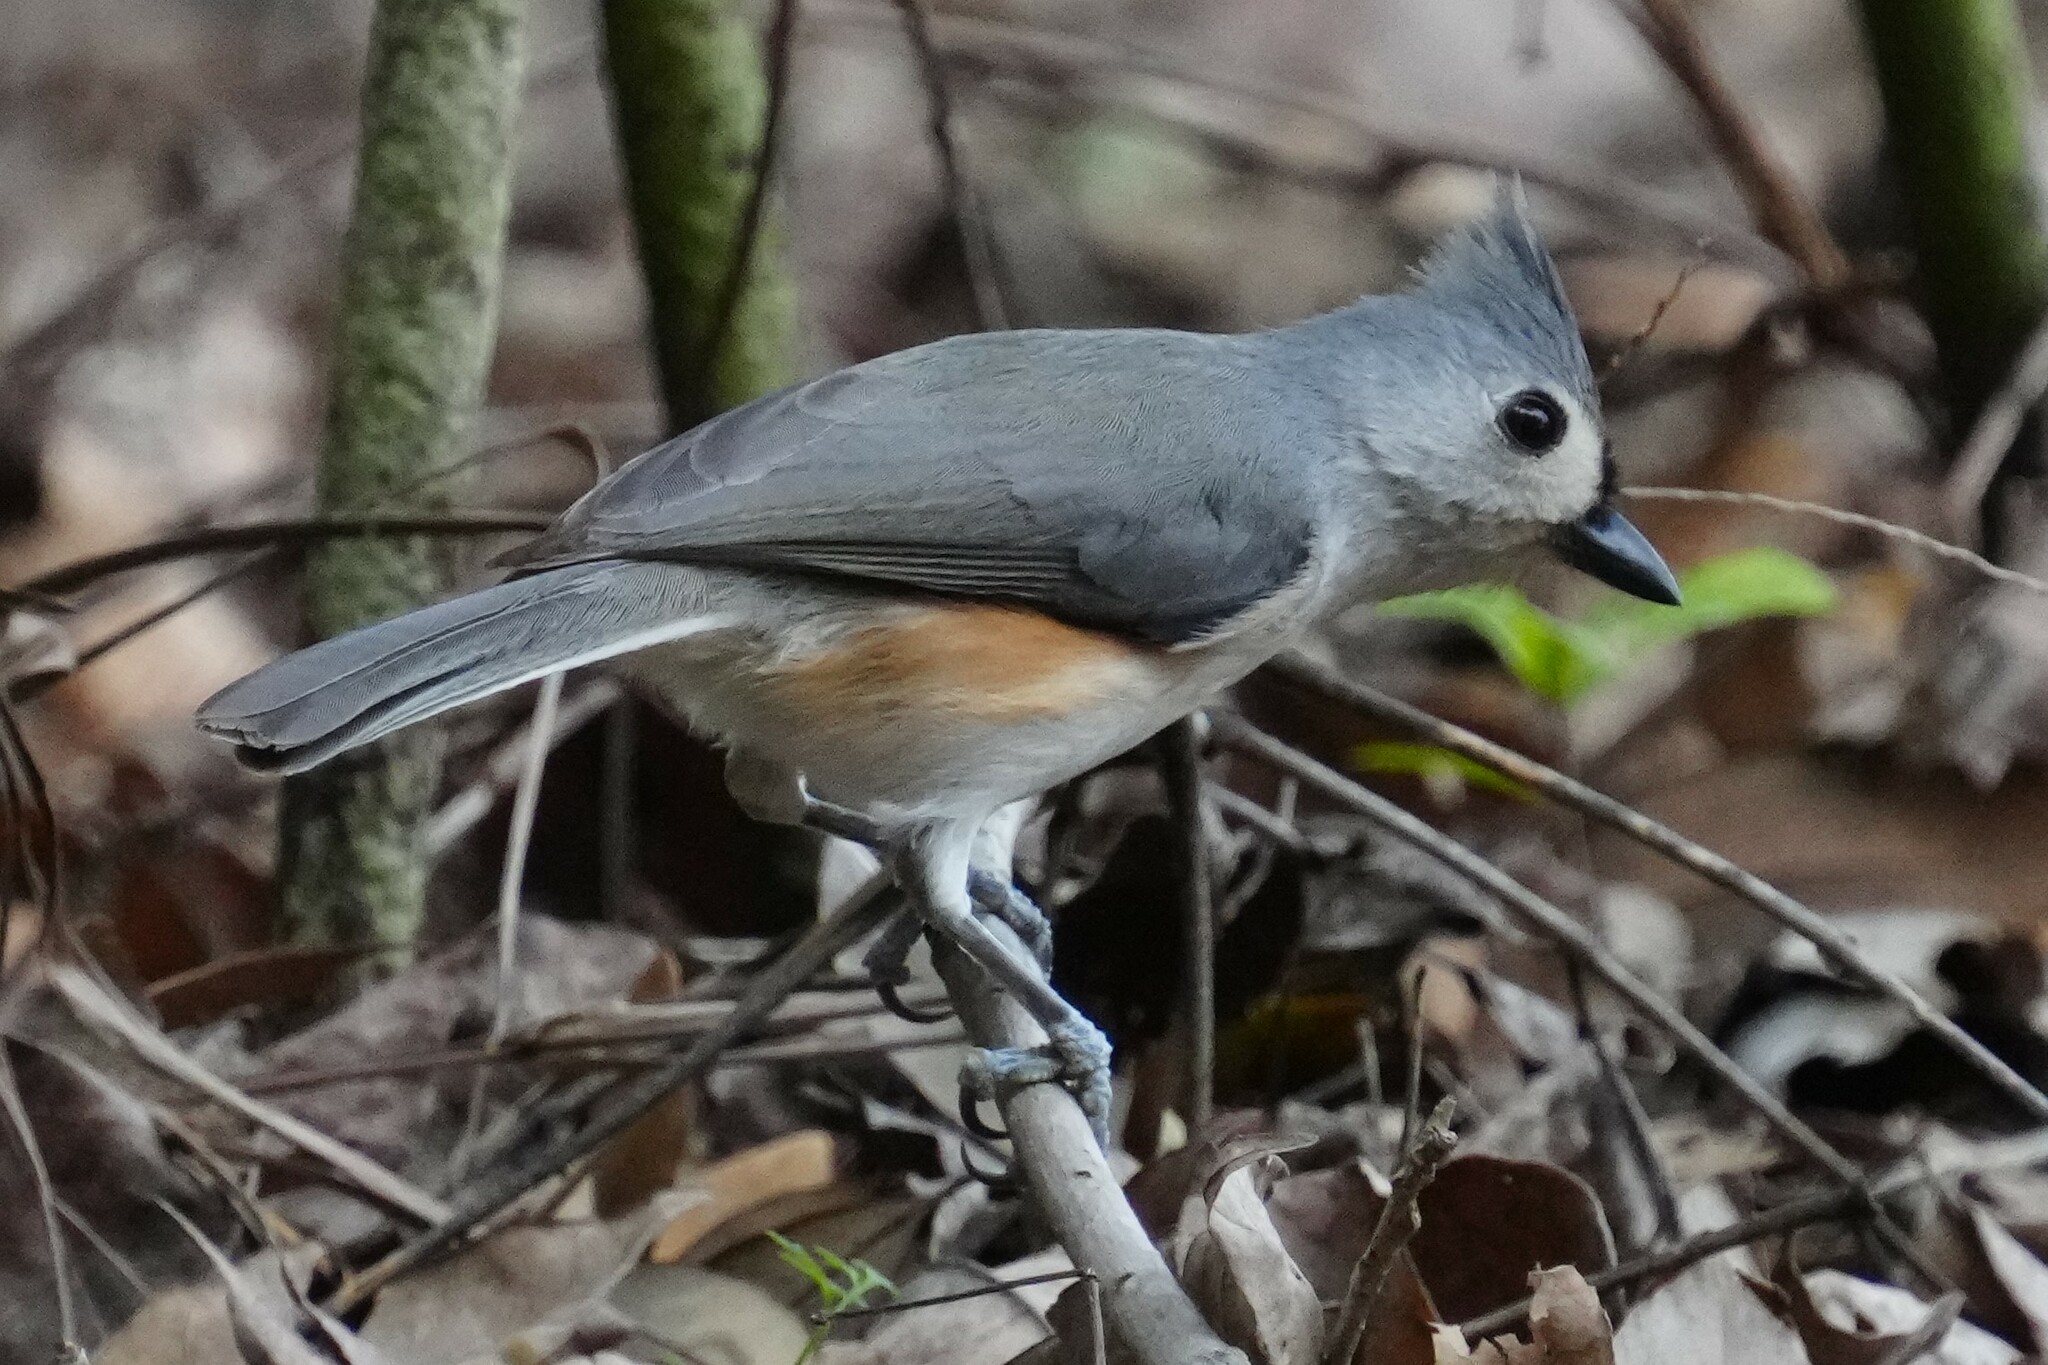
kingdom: Animalia
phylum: Chordata
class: Aves
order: Passeriformes
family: Paridae
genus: Baeolophus
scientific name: Baeolophus bicolor
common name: Tufted titmouse
